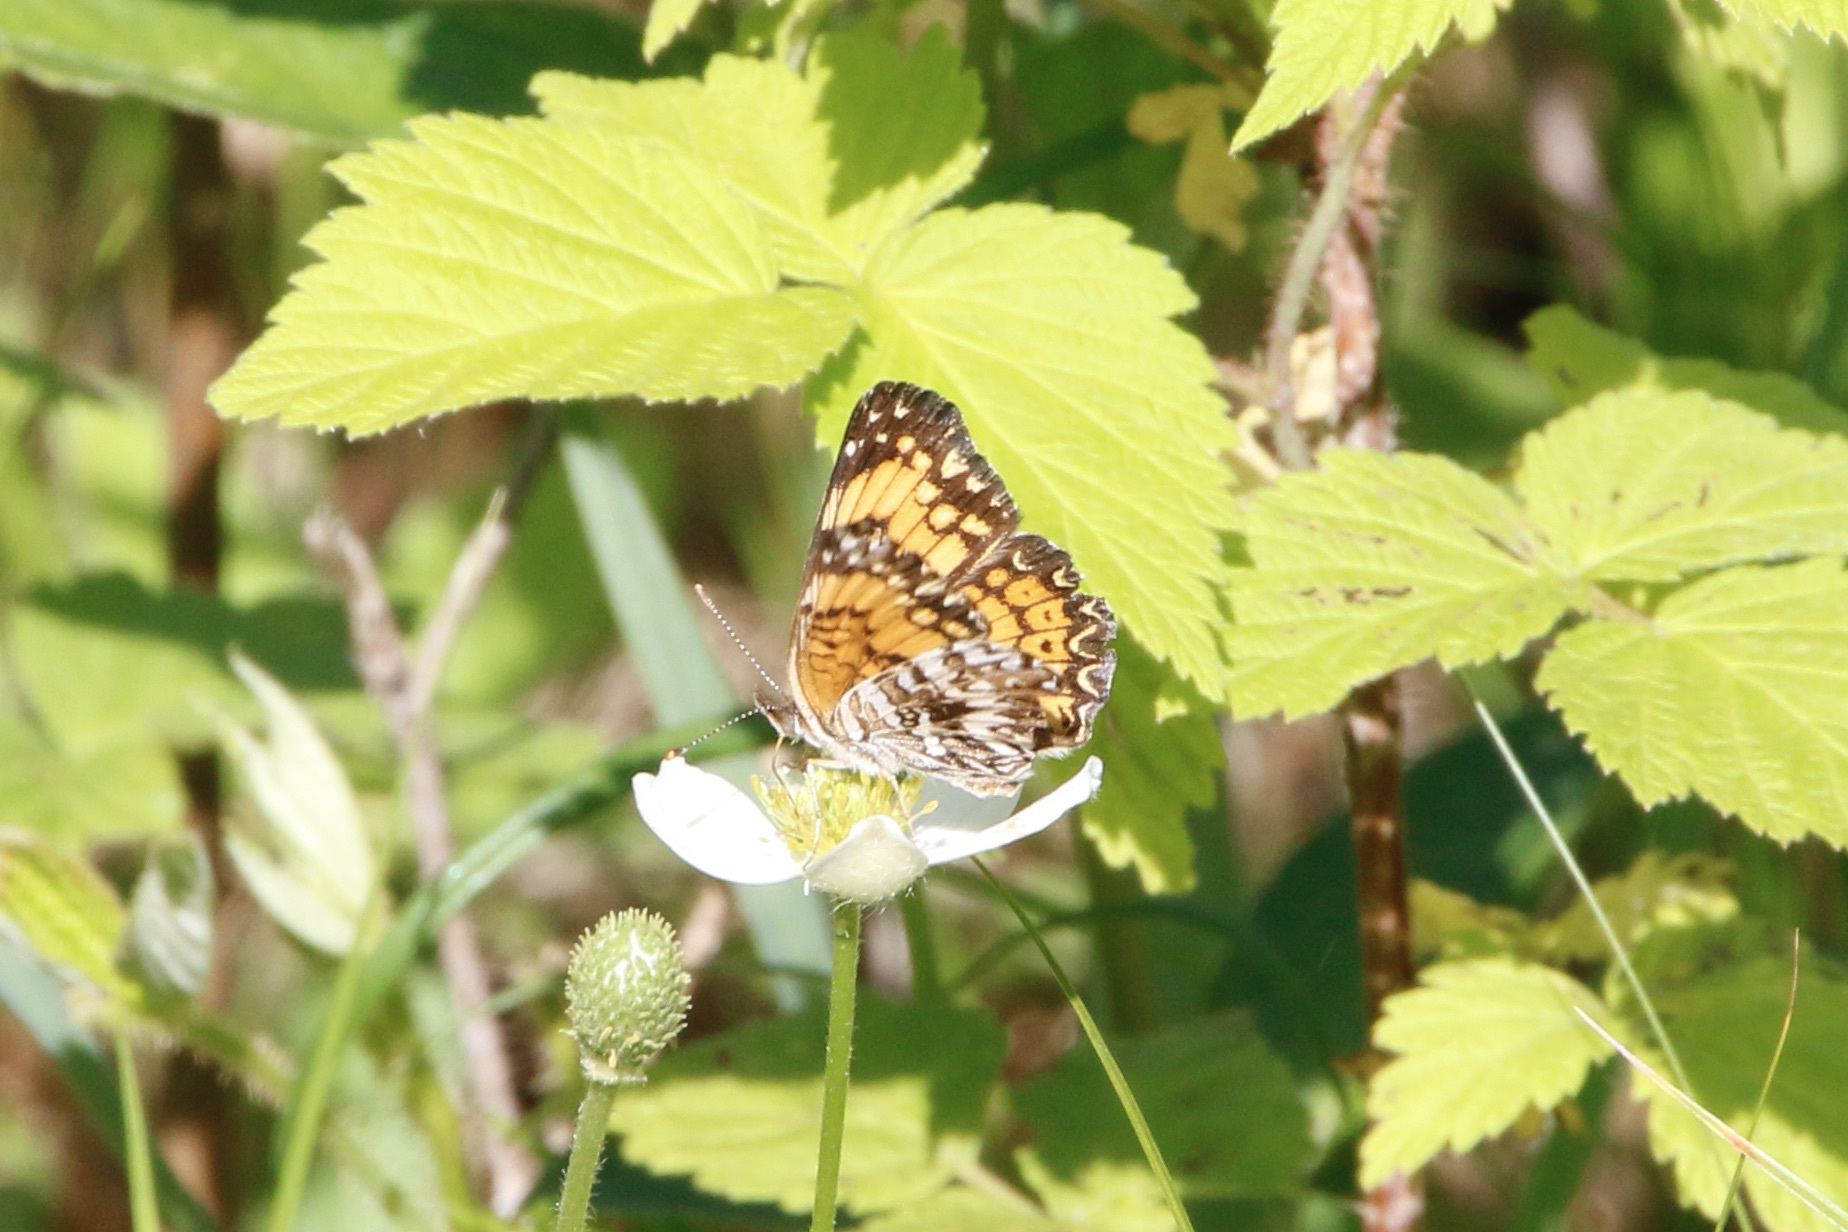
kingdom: Animalia
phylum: Arthropoda
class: Insecta
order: Lepidoptera
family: Nymphalidae
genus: Chlosyne
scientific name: Chlosyne gorgone
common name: Gorgone checkerspot
